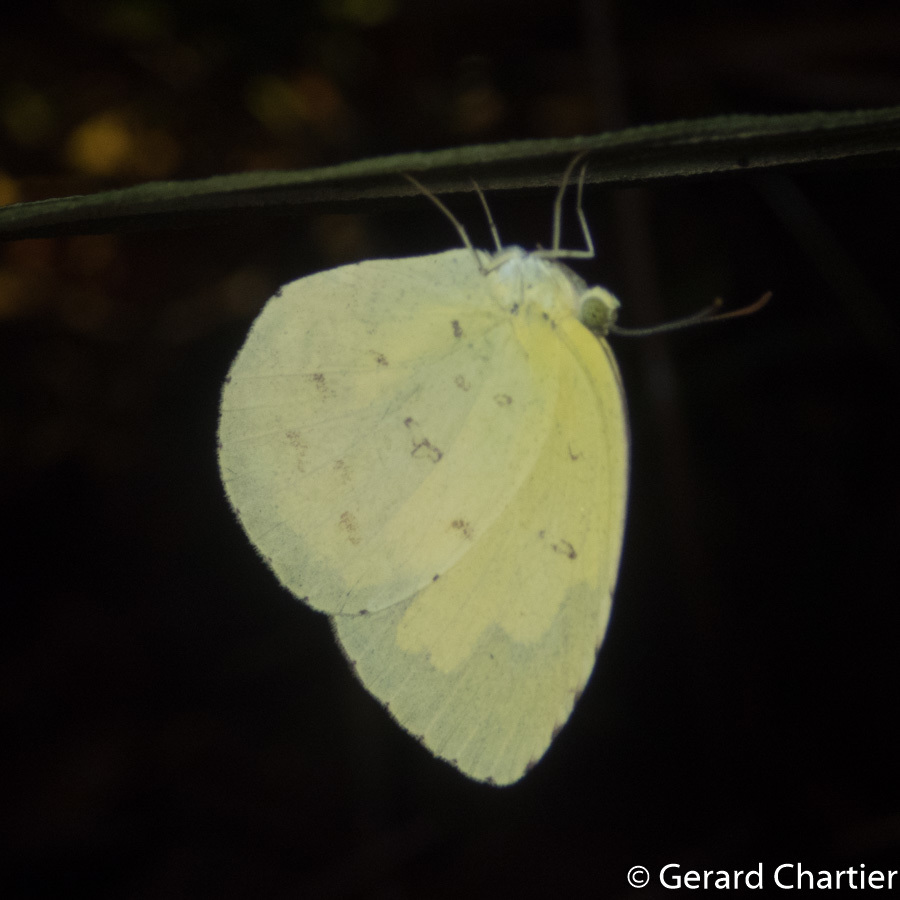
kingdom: Animalia
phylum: Arthropoda
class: Insecta
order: Lepidoptera
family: Pieridae
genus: Eurema
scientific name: Eurema hecabe
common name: Pale grass yellow
